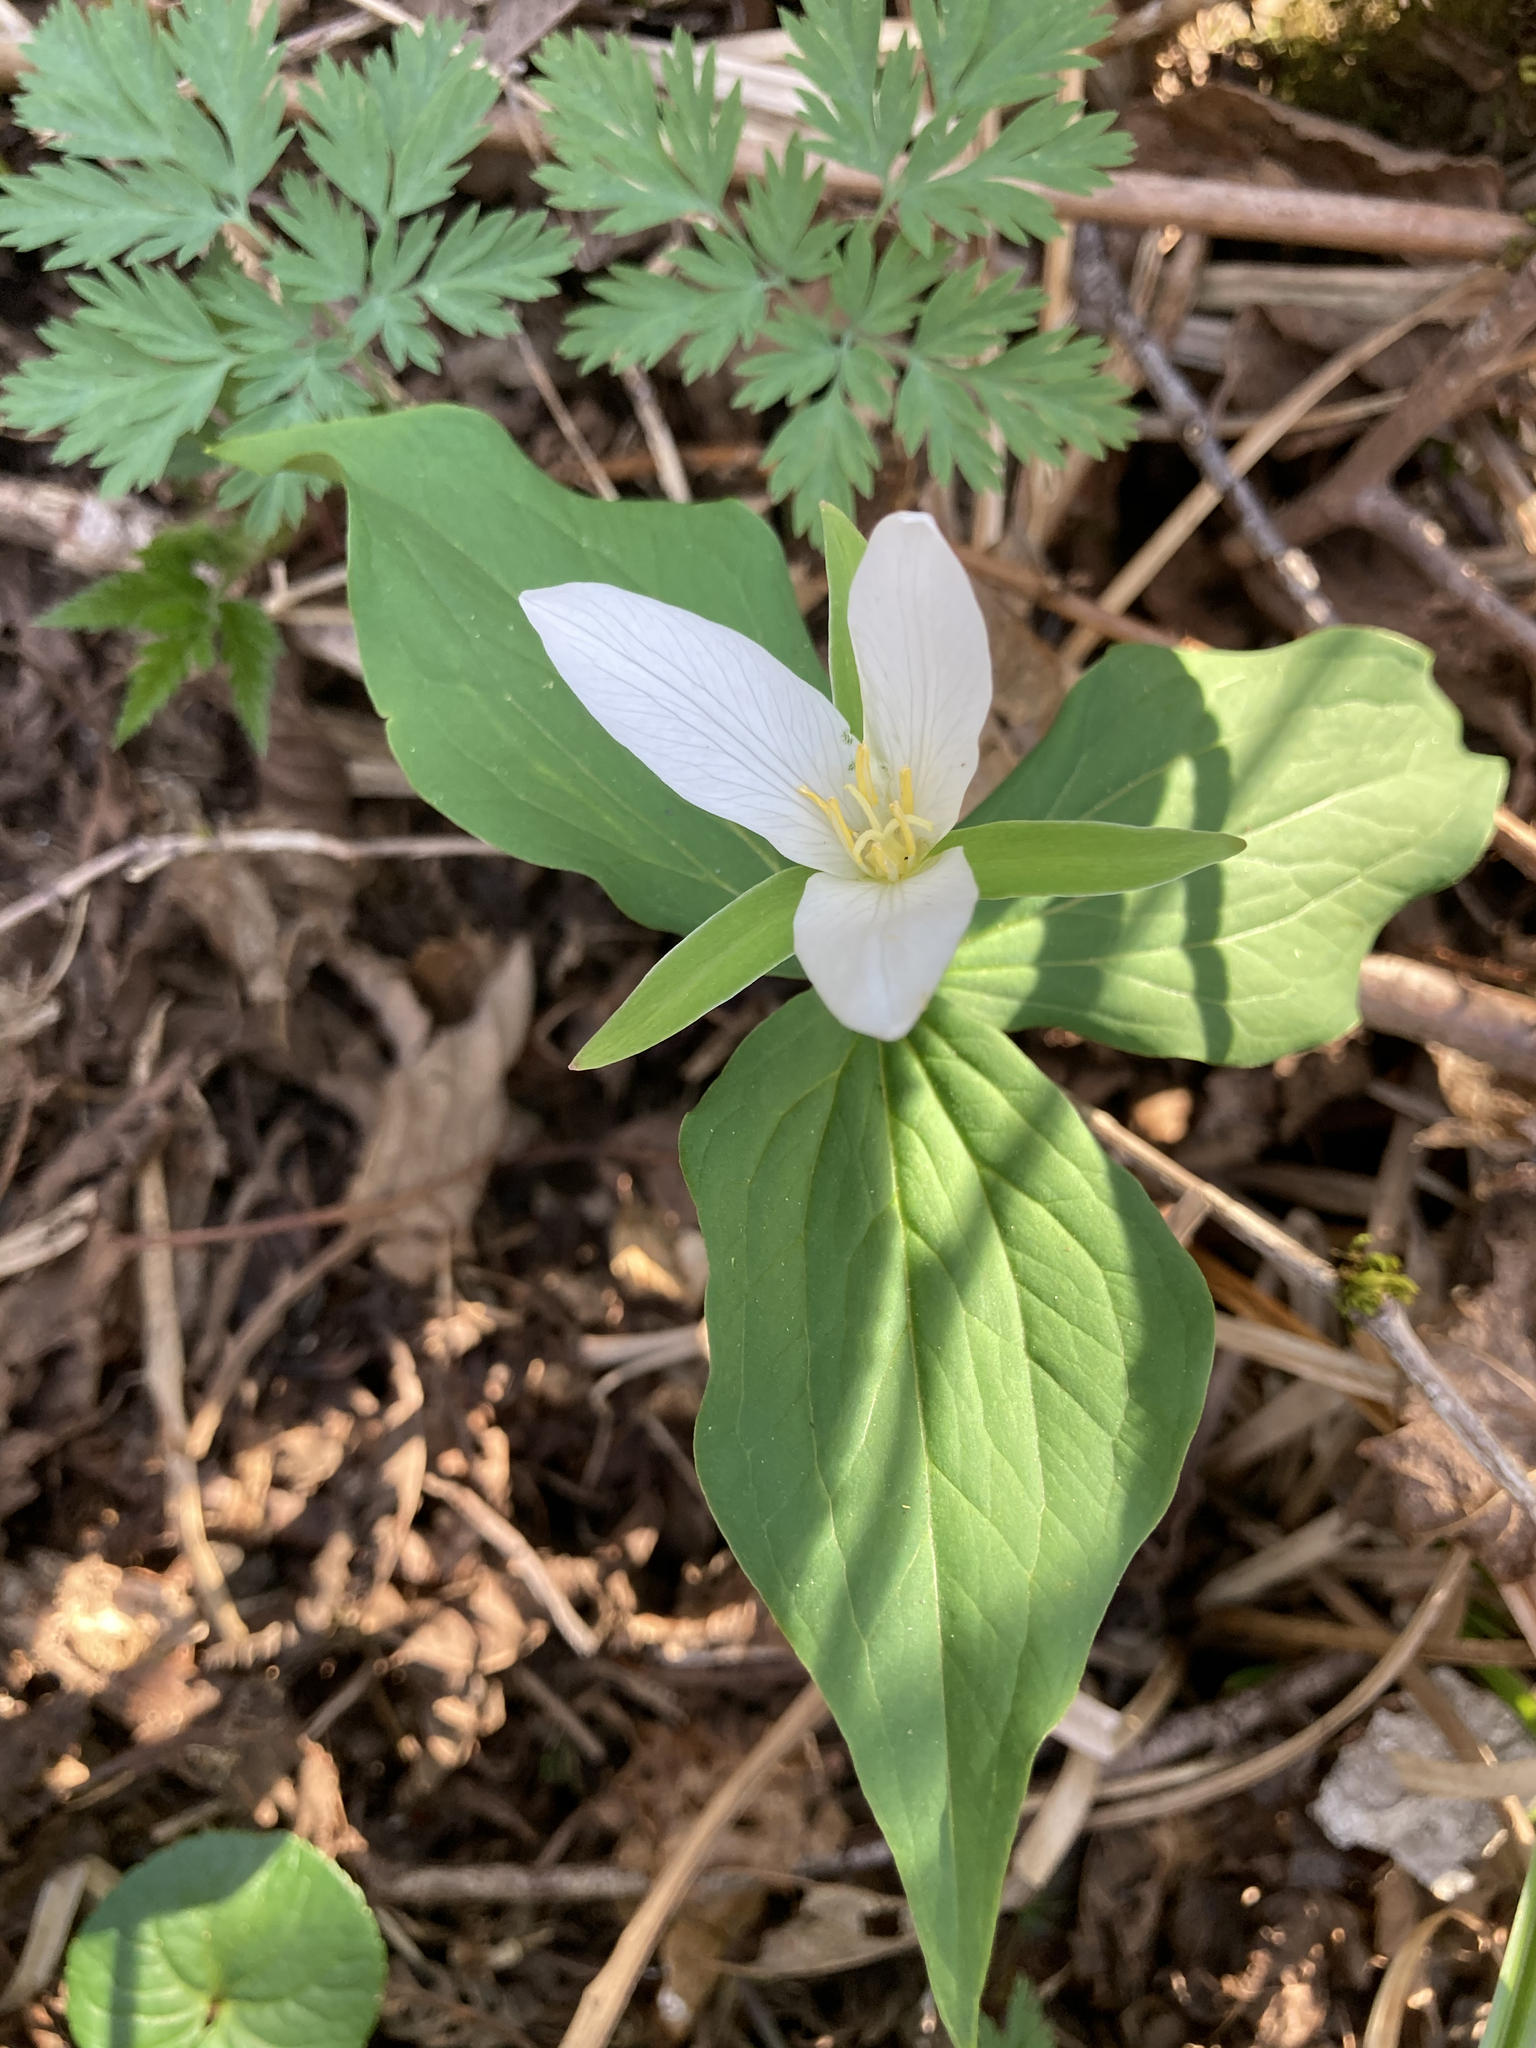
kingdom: Plantae
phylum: Tracheophyta
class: Liliopsida
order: Liliales
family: Melanthiaceae
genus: Trillium
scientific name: Trillium ovatum
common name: Pacific trillium
